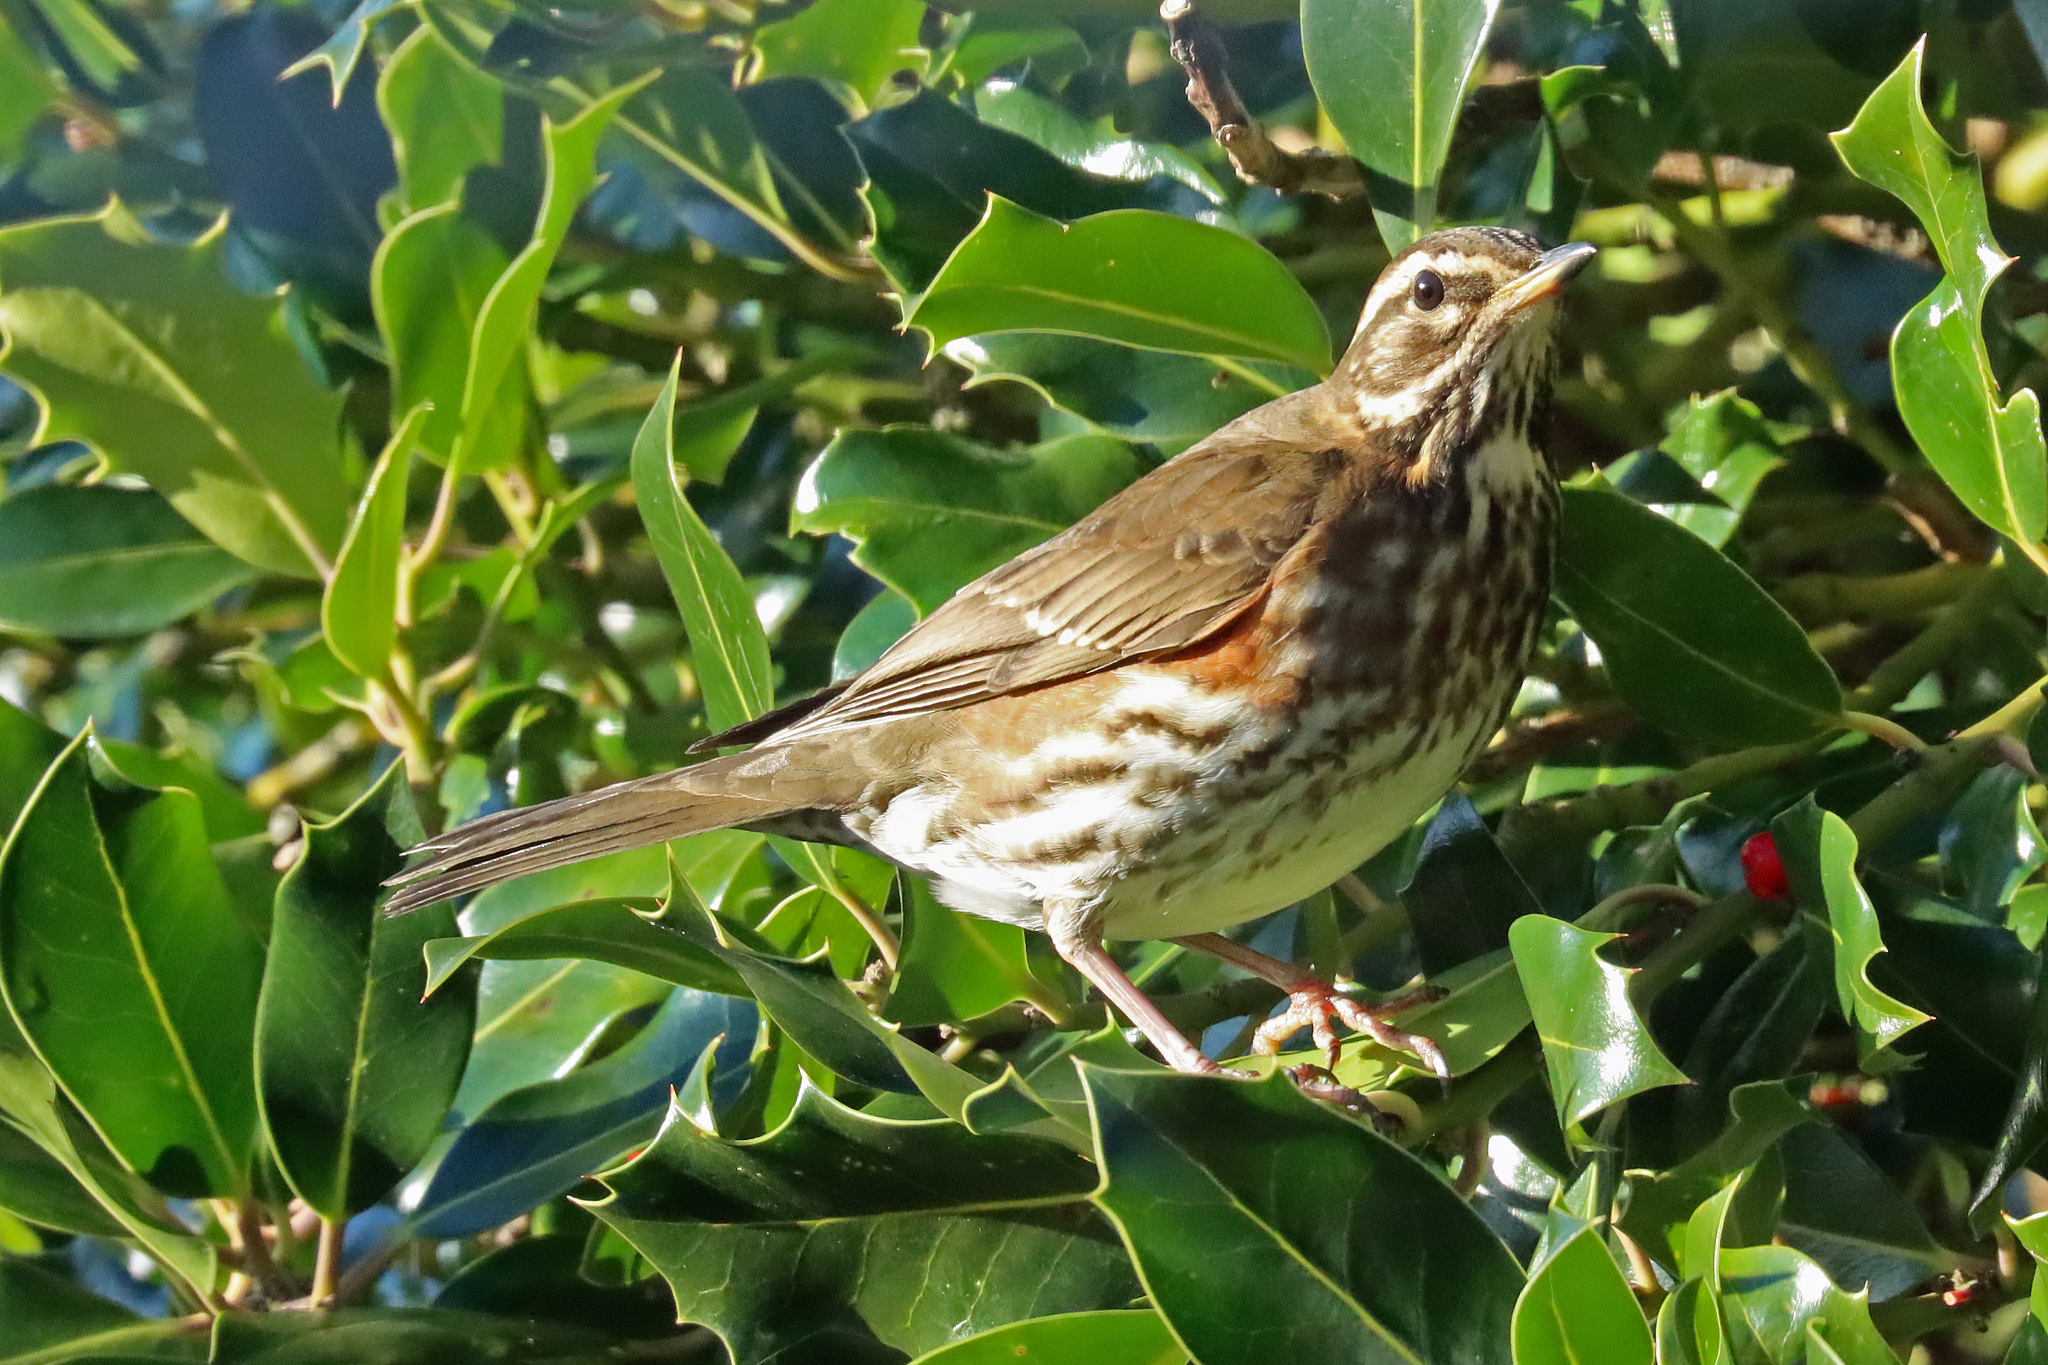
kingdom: Animalia
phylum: Chordata
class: Aves
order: Passeriformes
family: Turdidae
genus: Turdus
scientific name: Turdus iliacus
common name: Redwing
